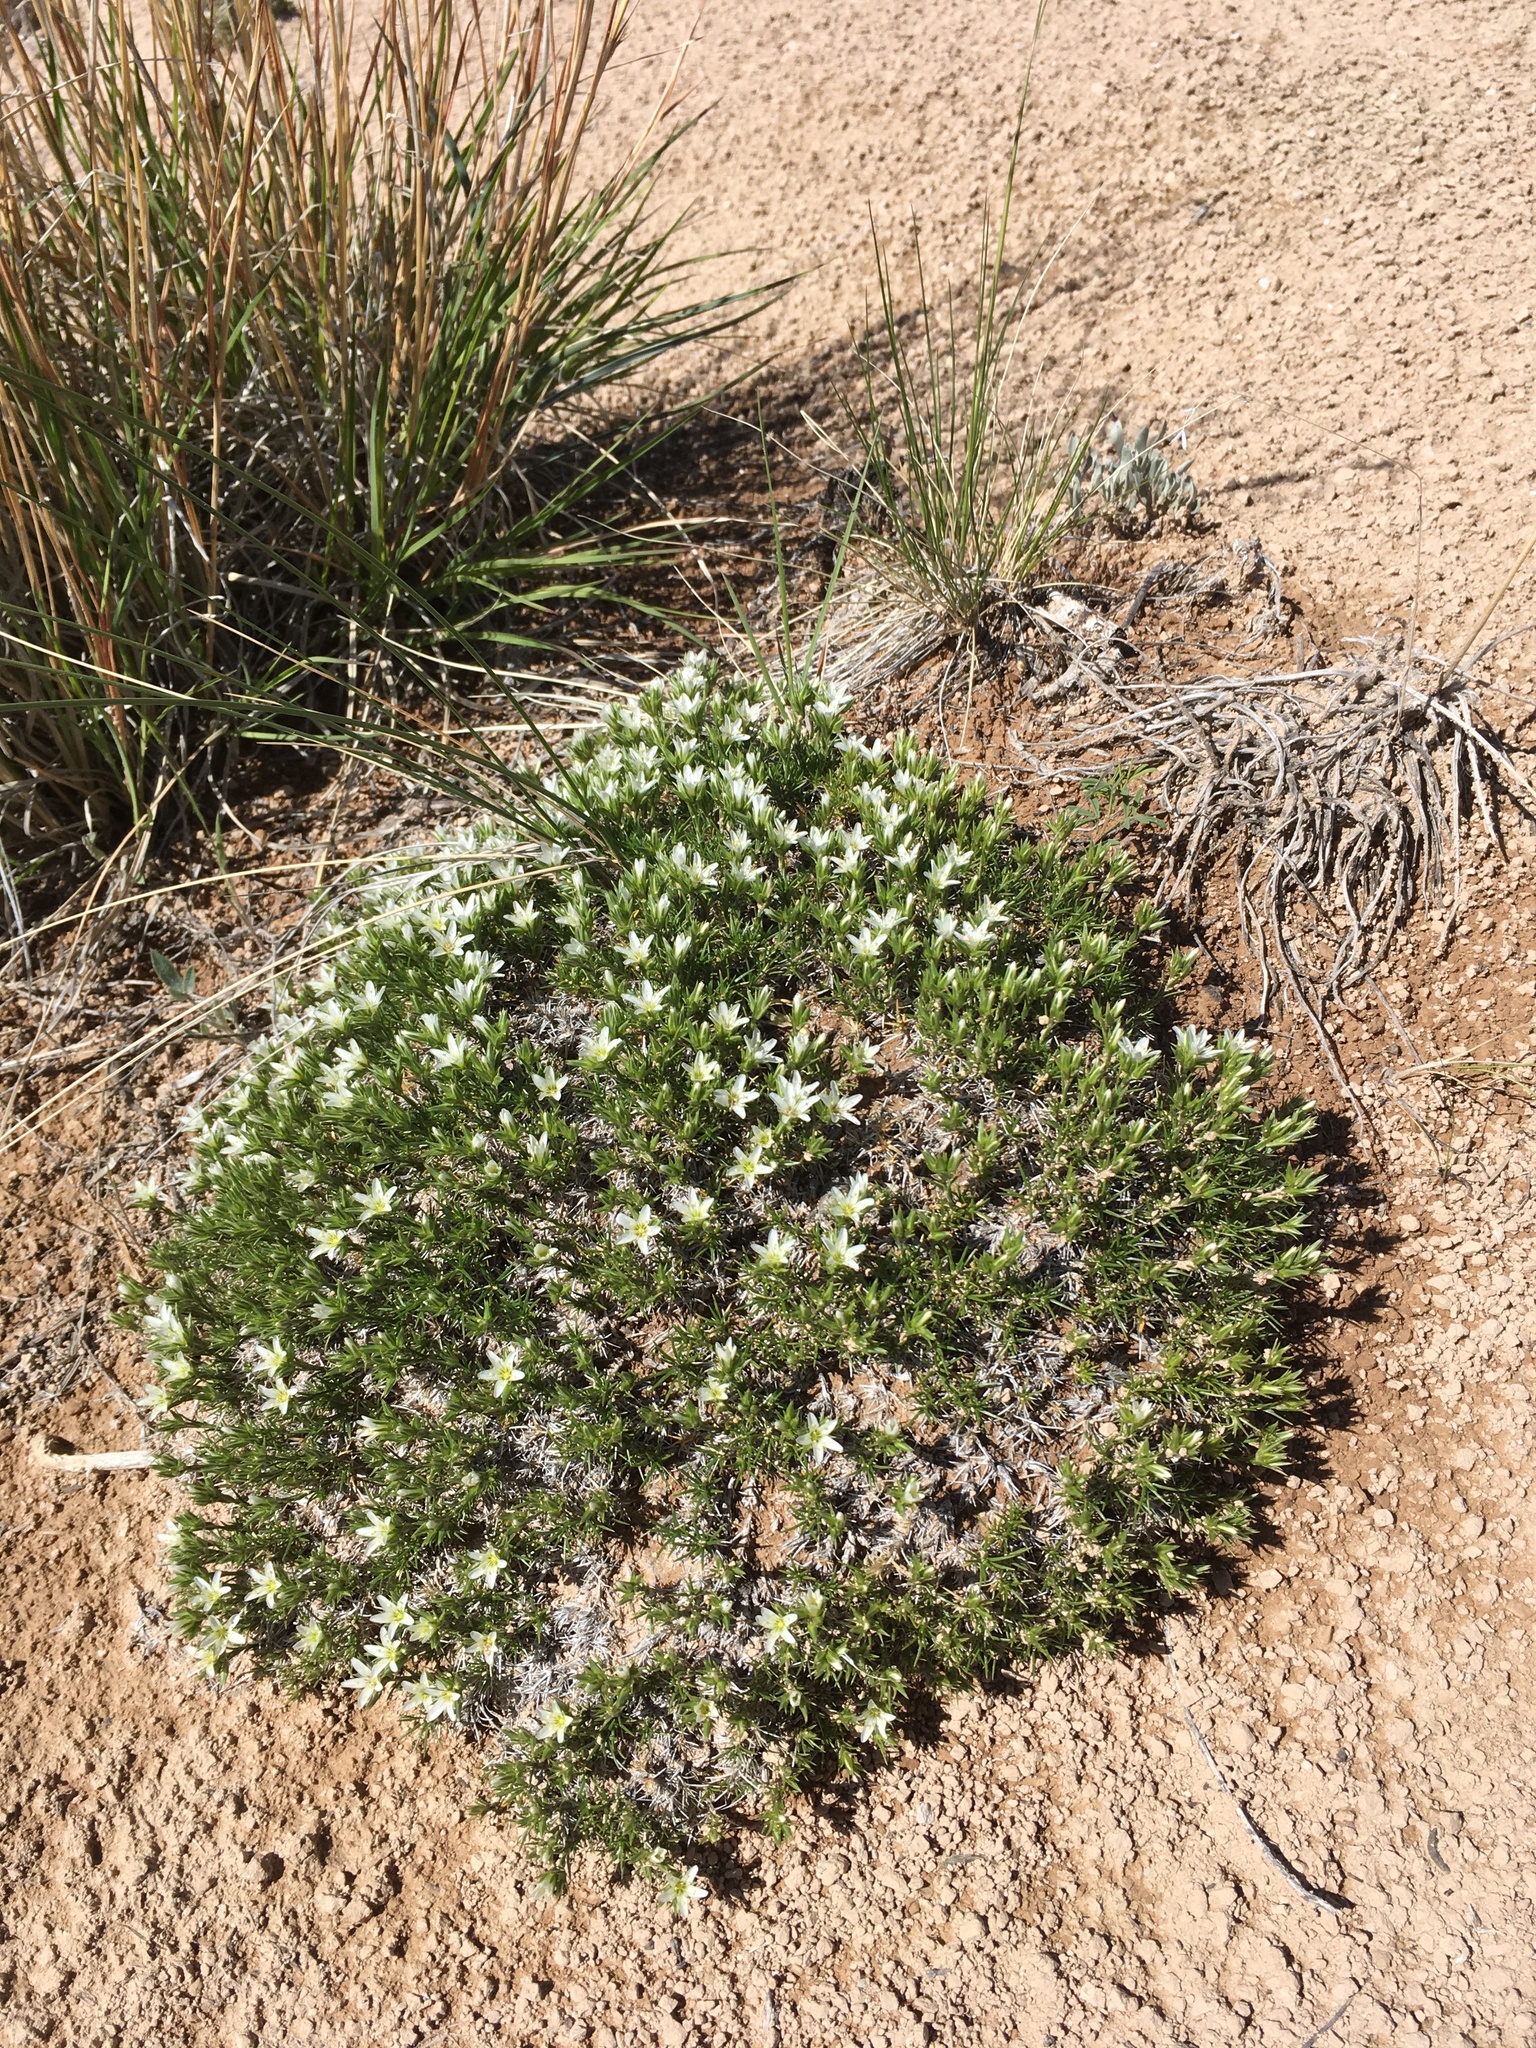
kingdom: Plantae
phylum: Tracheophyta
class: Magnoliopsida
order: Caryophyllales
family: Caryophyllaceae
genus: Eremogone
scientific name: Eremogone hookeri
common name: Hooker's sandwort
